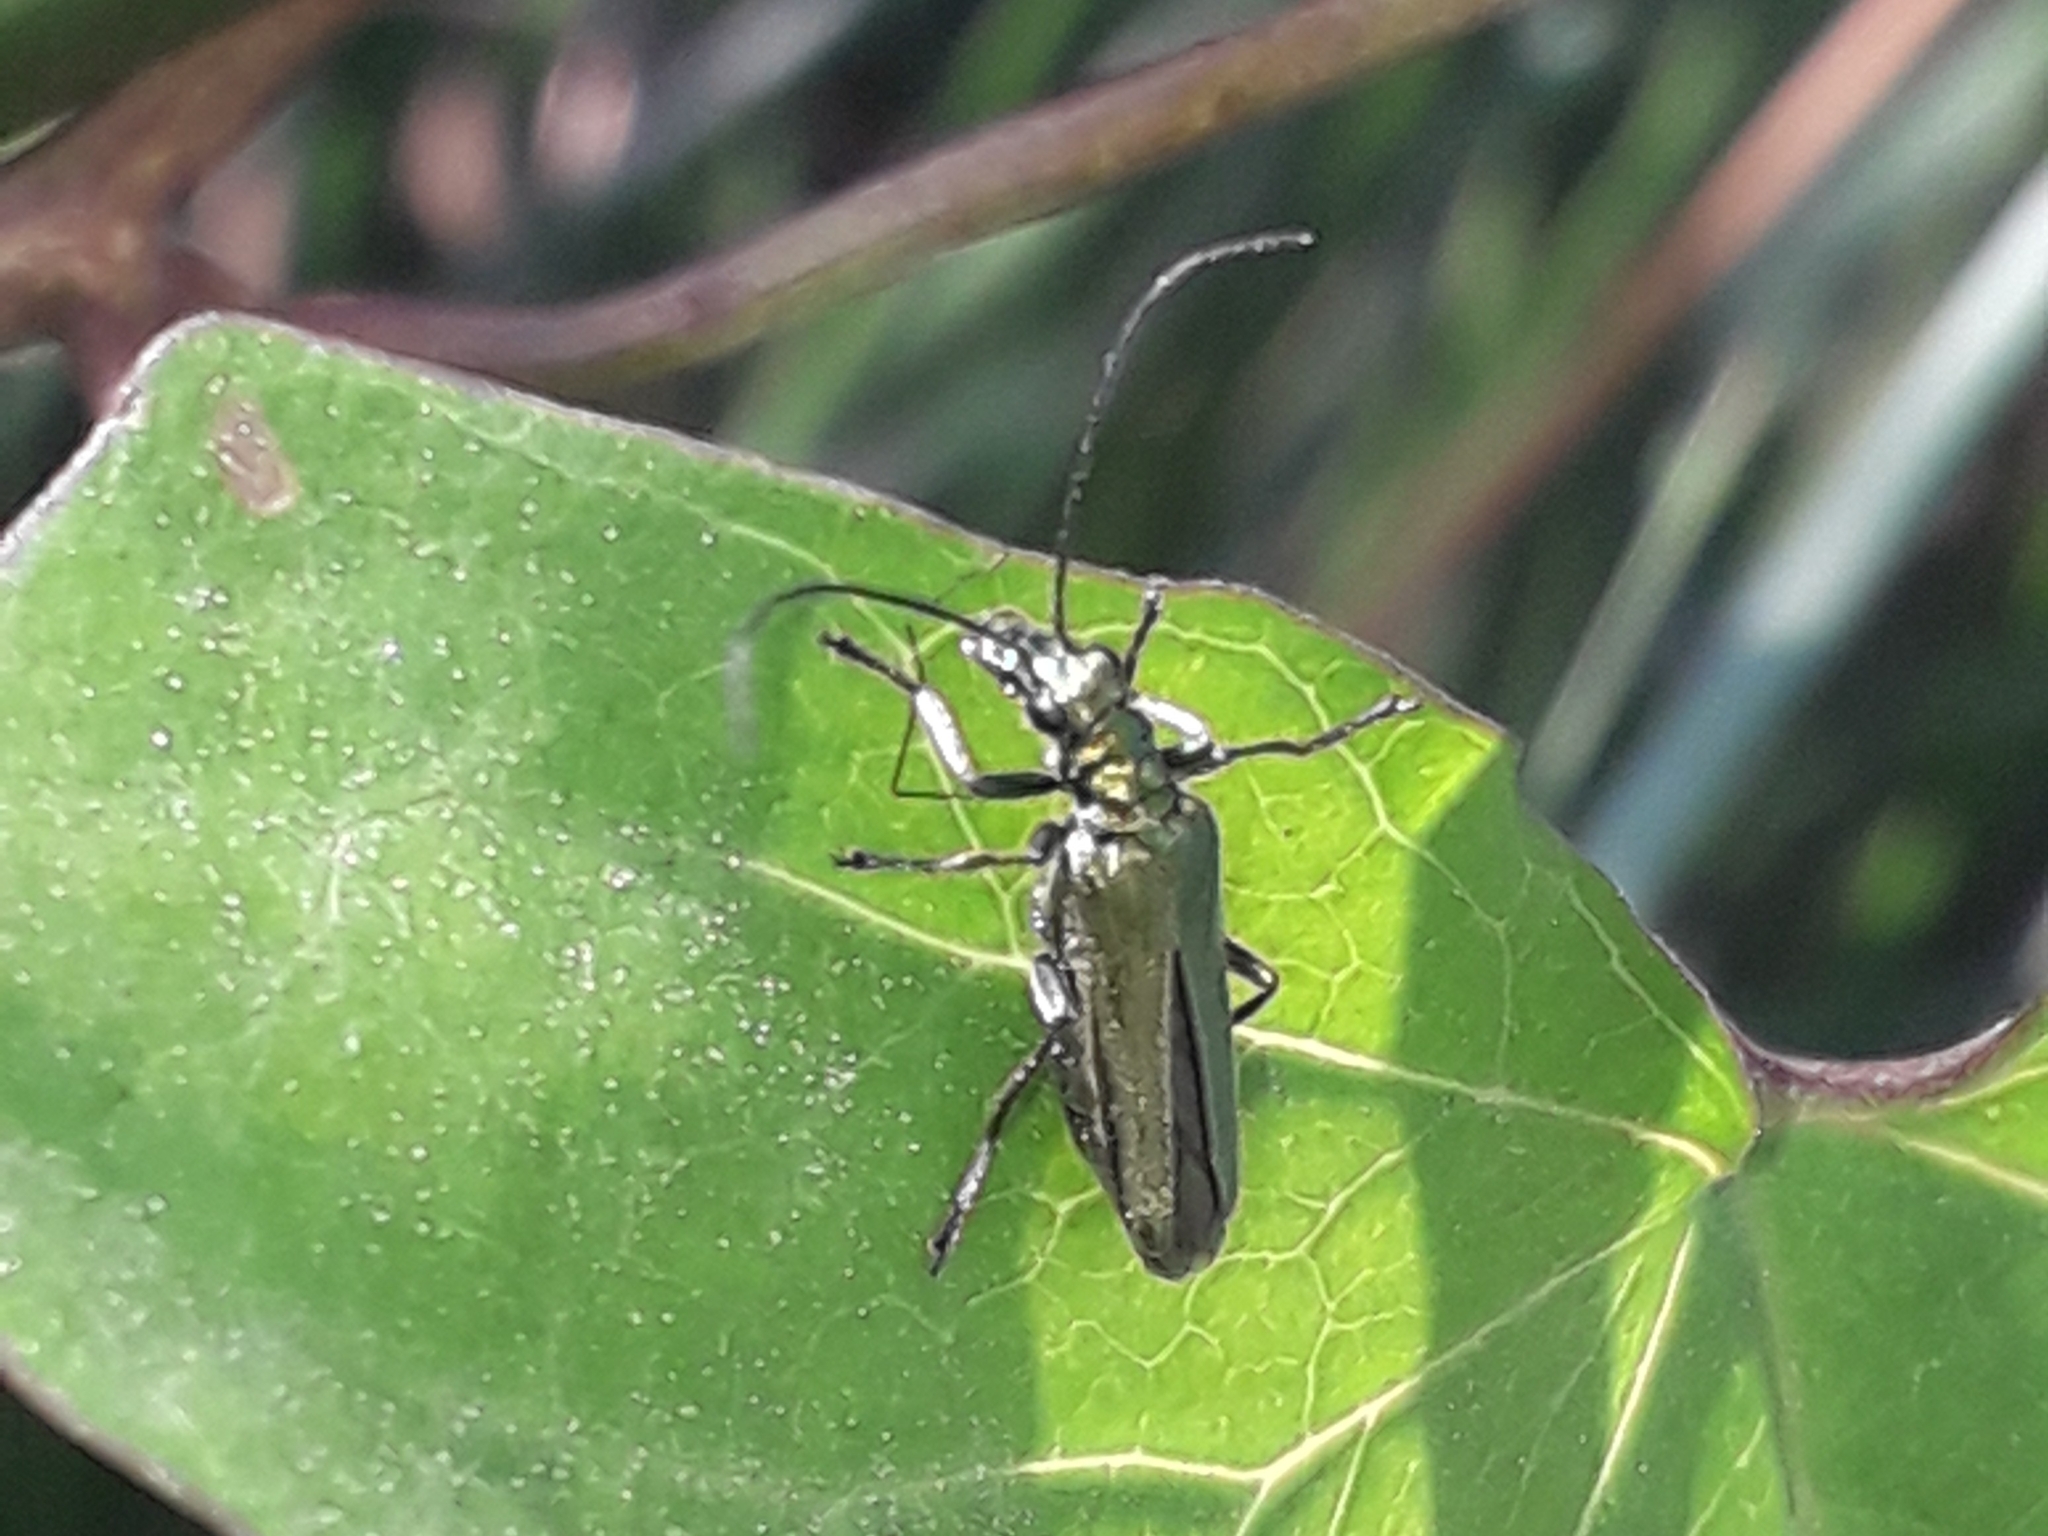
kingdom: Animalia
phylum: Arthropoda
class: Insecta
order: Coleoptera
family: Oedemeridae
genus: Oedemera
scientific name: Oedemera nobilis
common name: Swollen-thighed beetle
